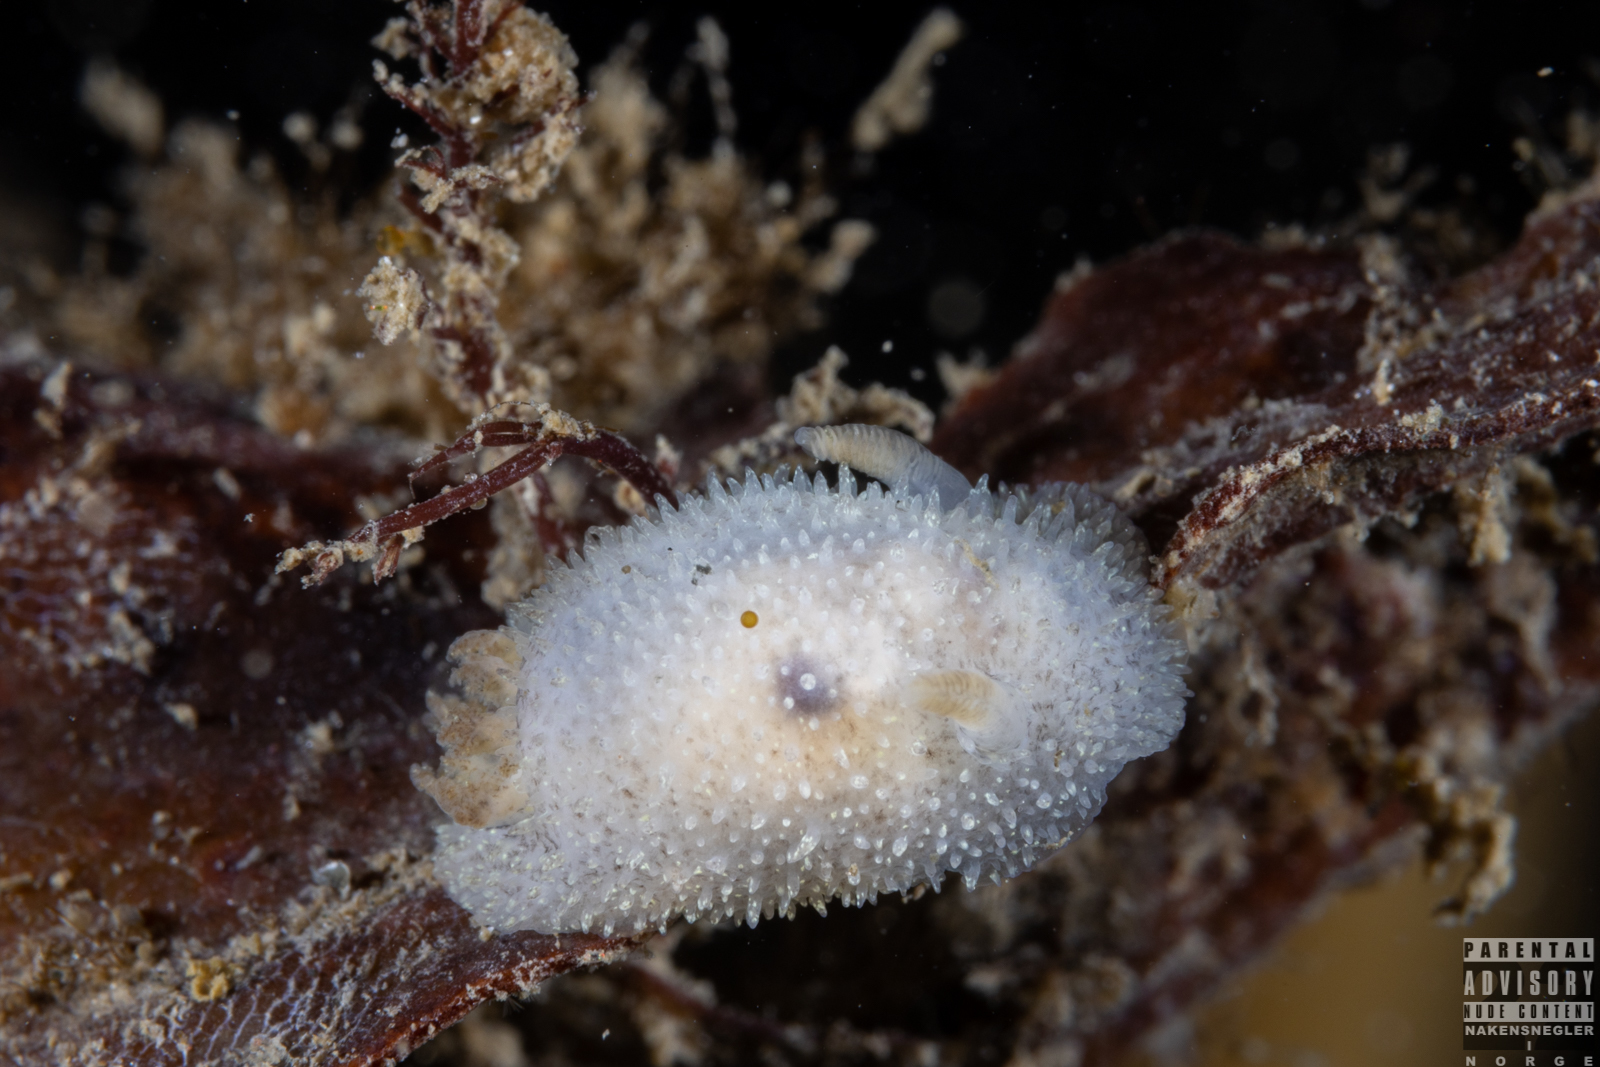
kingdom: Animalia
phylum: Mollusca
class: Gastropoda
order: Nudibranchia
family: Onchidorididae
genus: Acanthodoris
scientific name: Acanthodoris pilosa
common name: Hairy spiny doris
